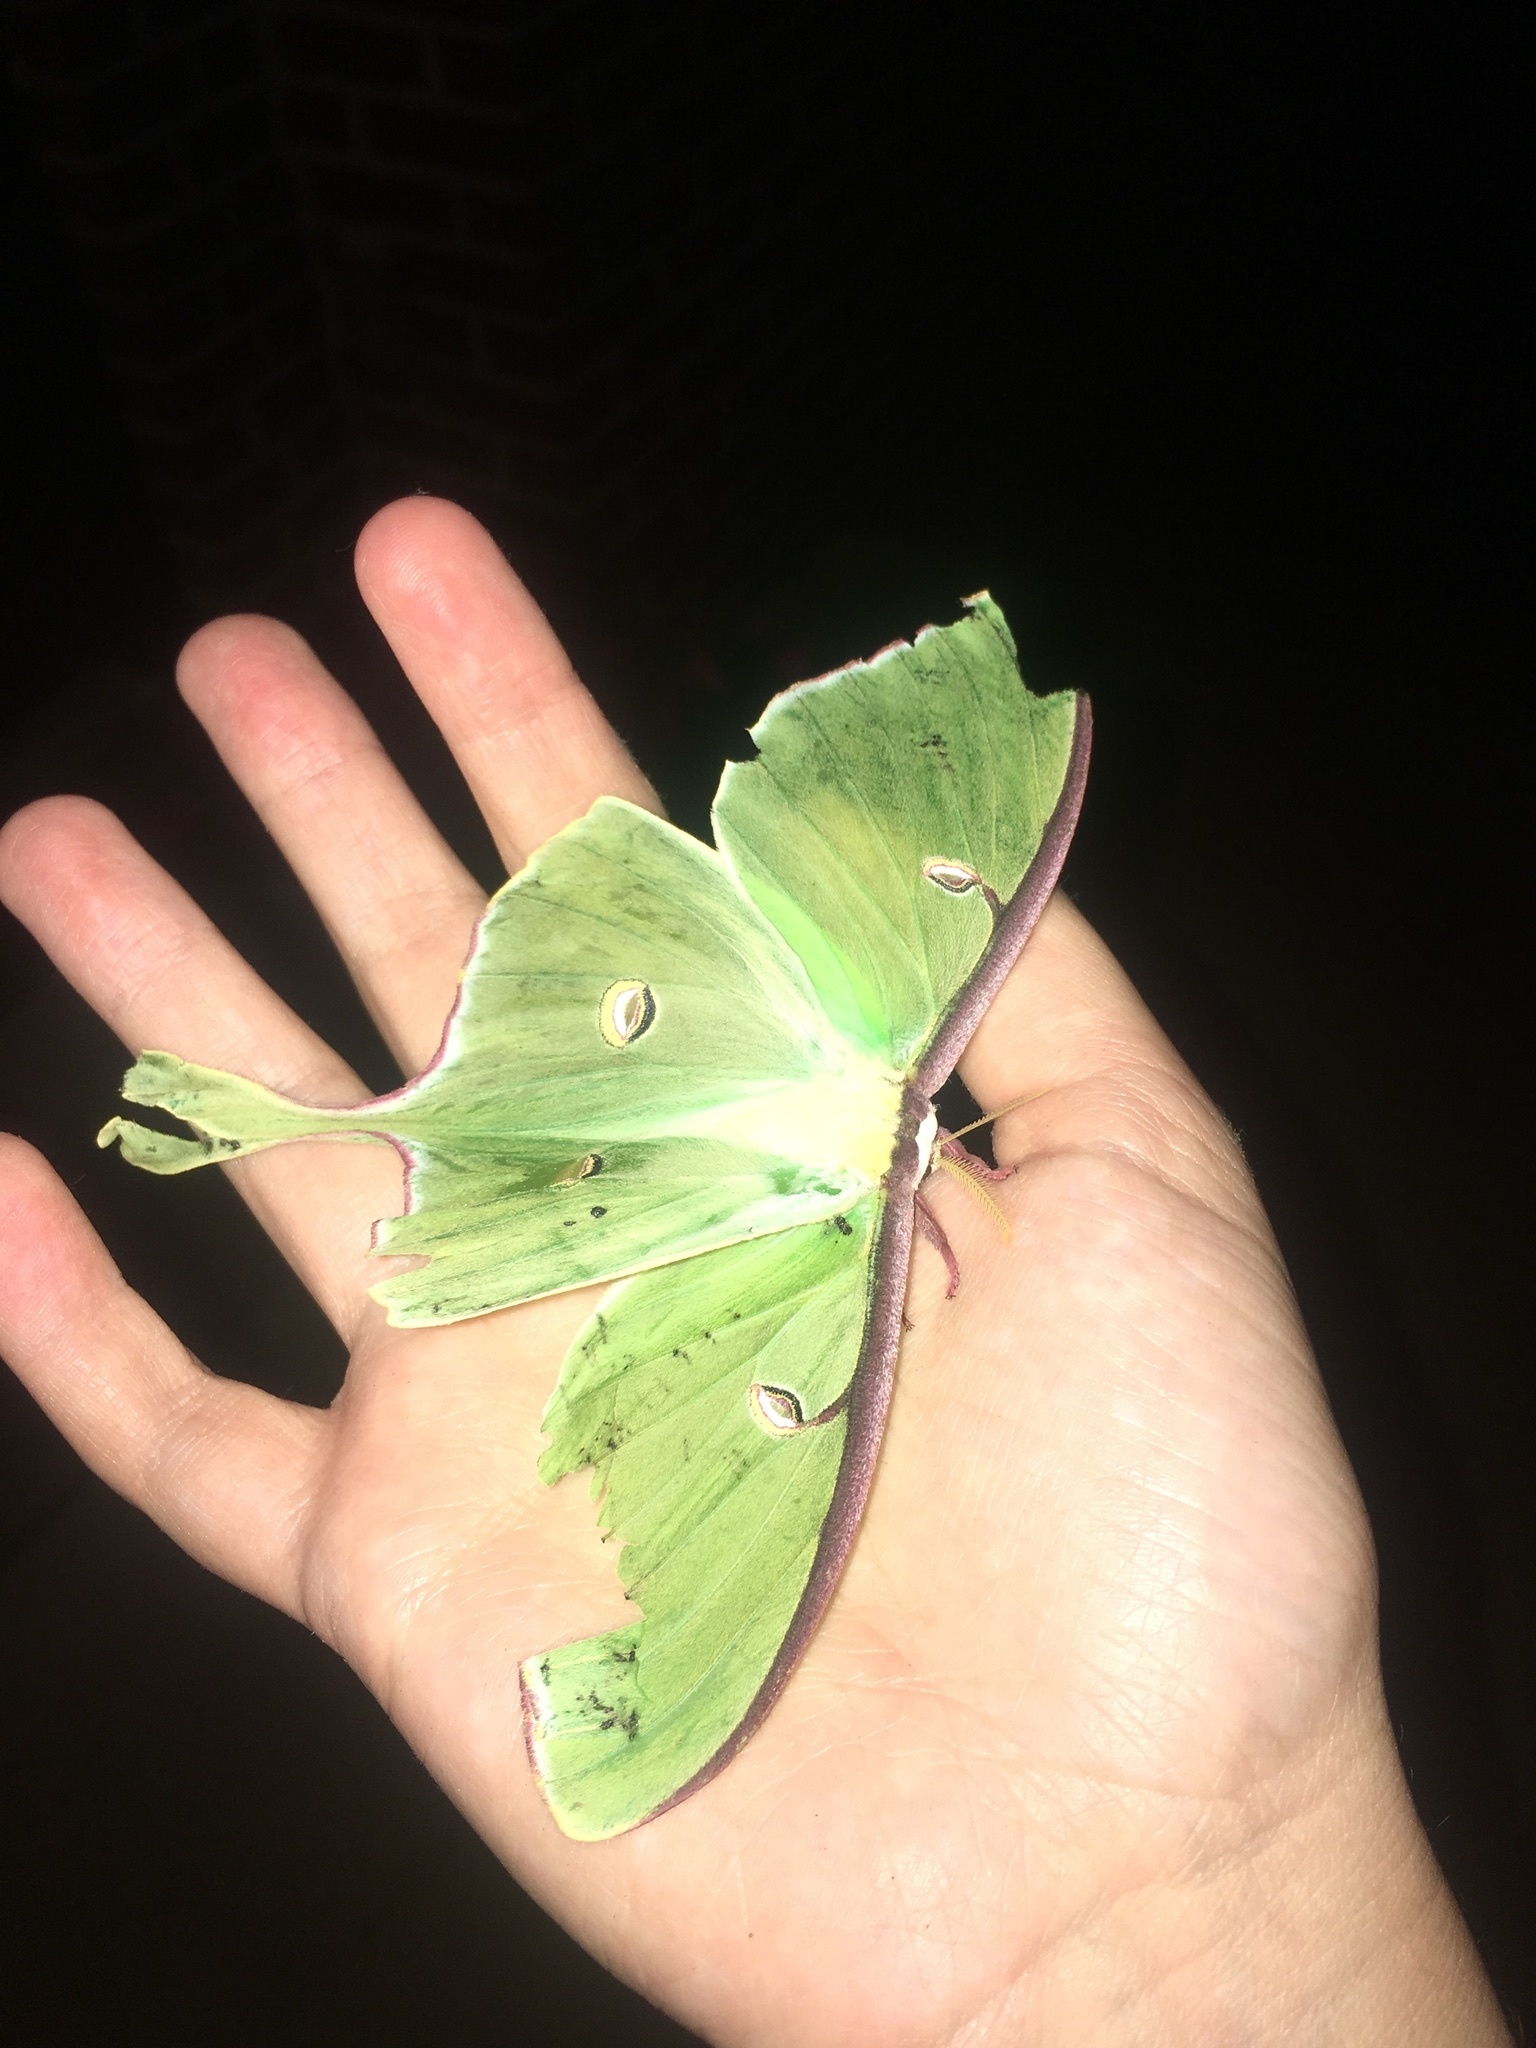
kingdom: Animalia
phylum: Arthropoda
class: Insecta
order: Lepidoptera
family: Saturniidae
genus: Actias
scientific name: Actias luna
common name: Luna moth
